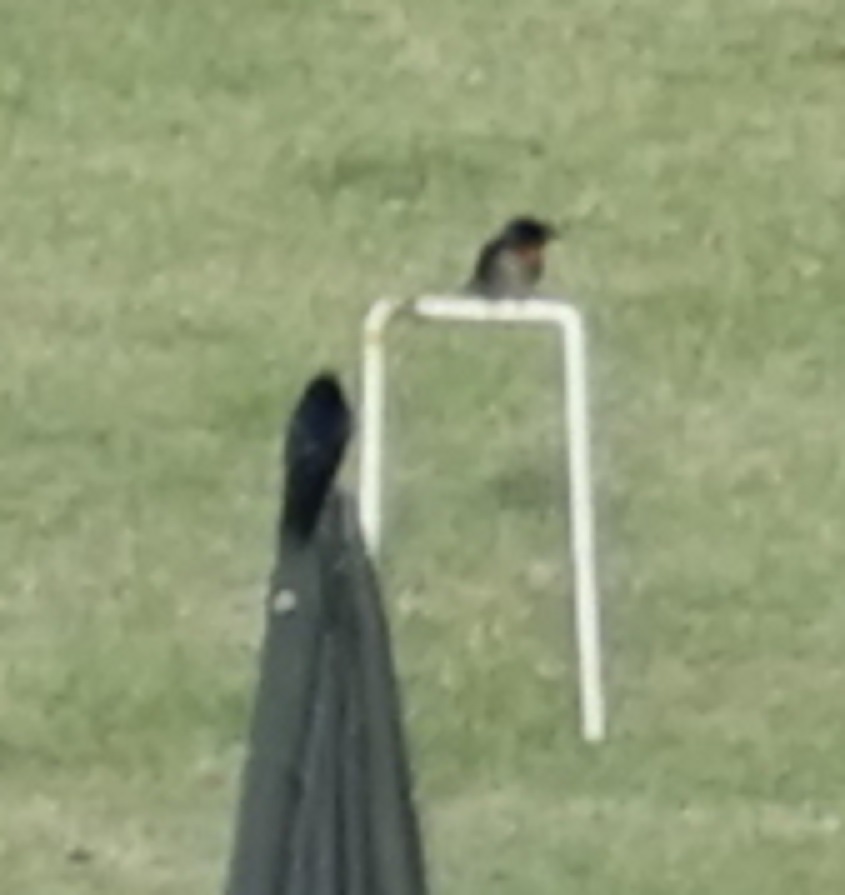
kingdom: Animalia
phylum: Chordata
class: Aves
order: Passeriformes
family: Hirundinidae
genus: Hirundo
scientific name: Hirundo tahitica
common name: Pacific swallow
